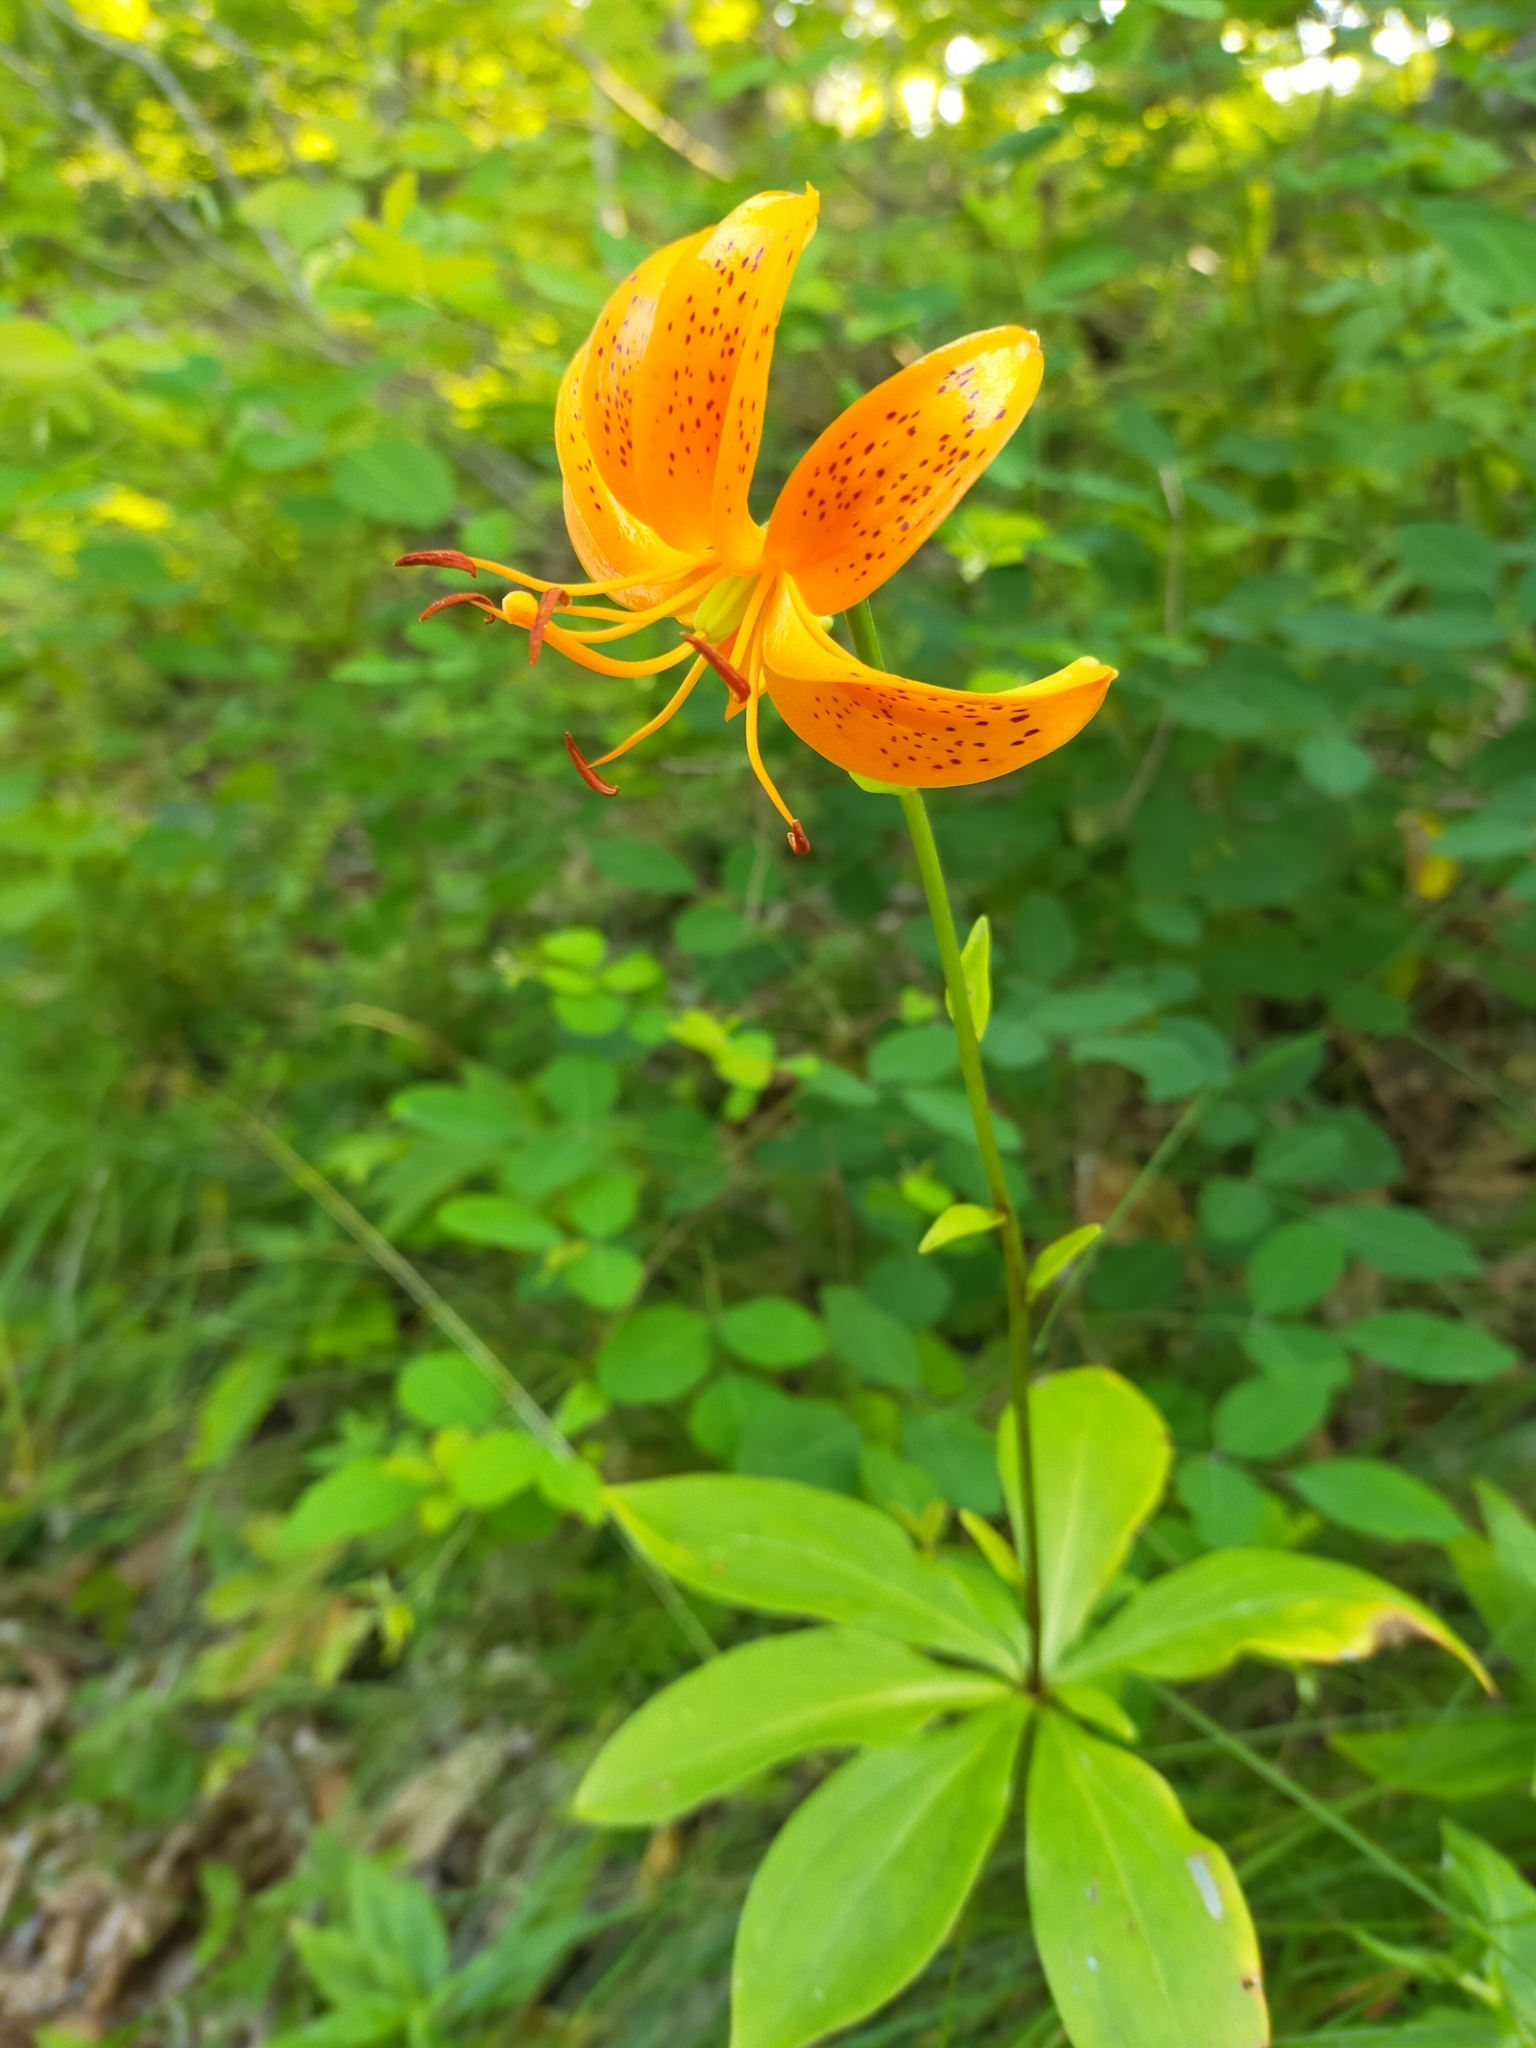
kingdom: Plantae
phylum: Tracheophyta
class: Liliopsida
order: Liliales
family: Liliaceae
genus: Lilium
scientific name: Lilium distichum
